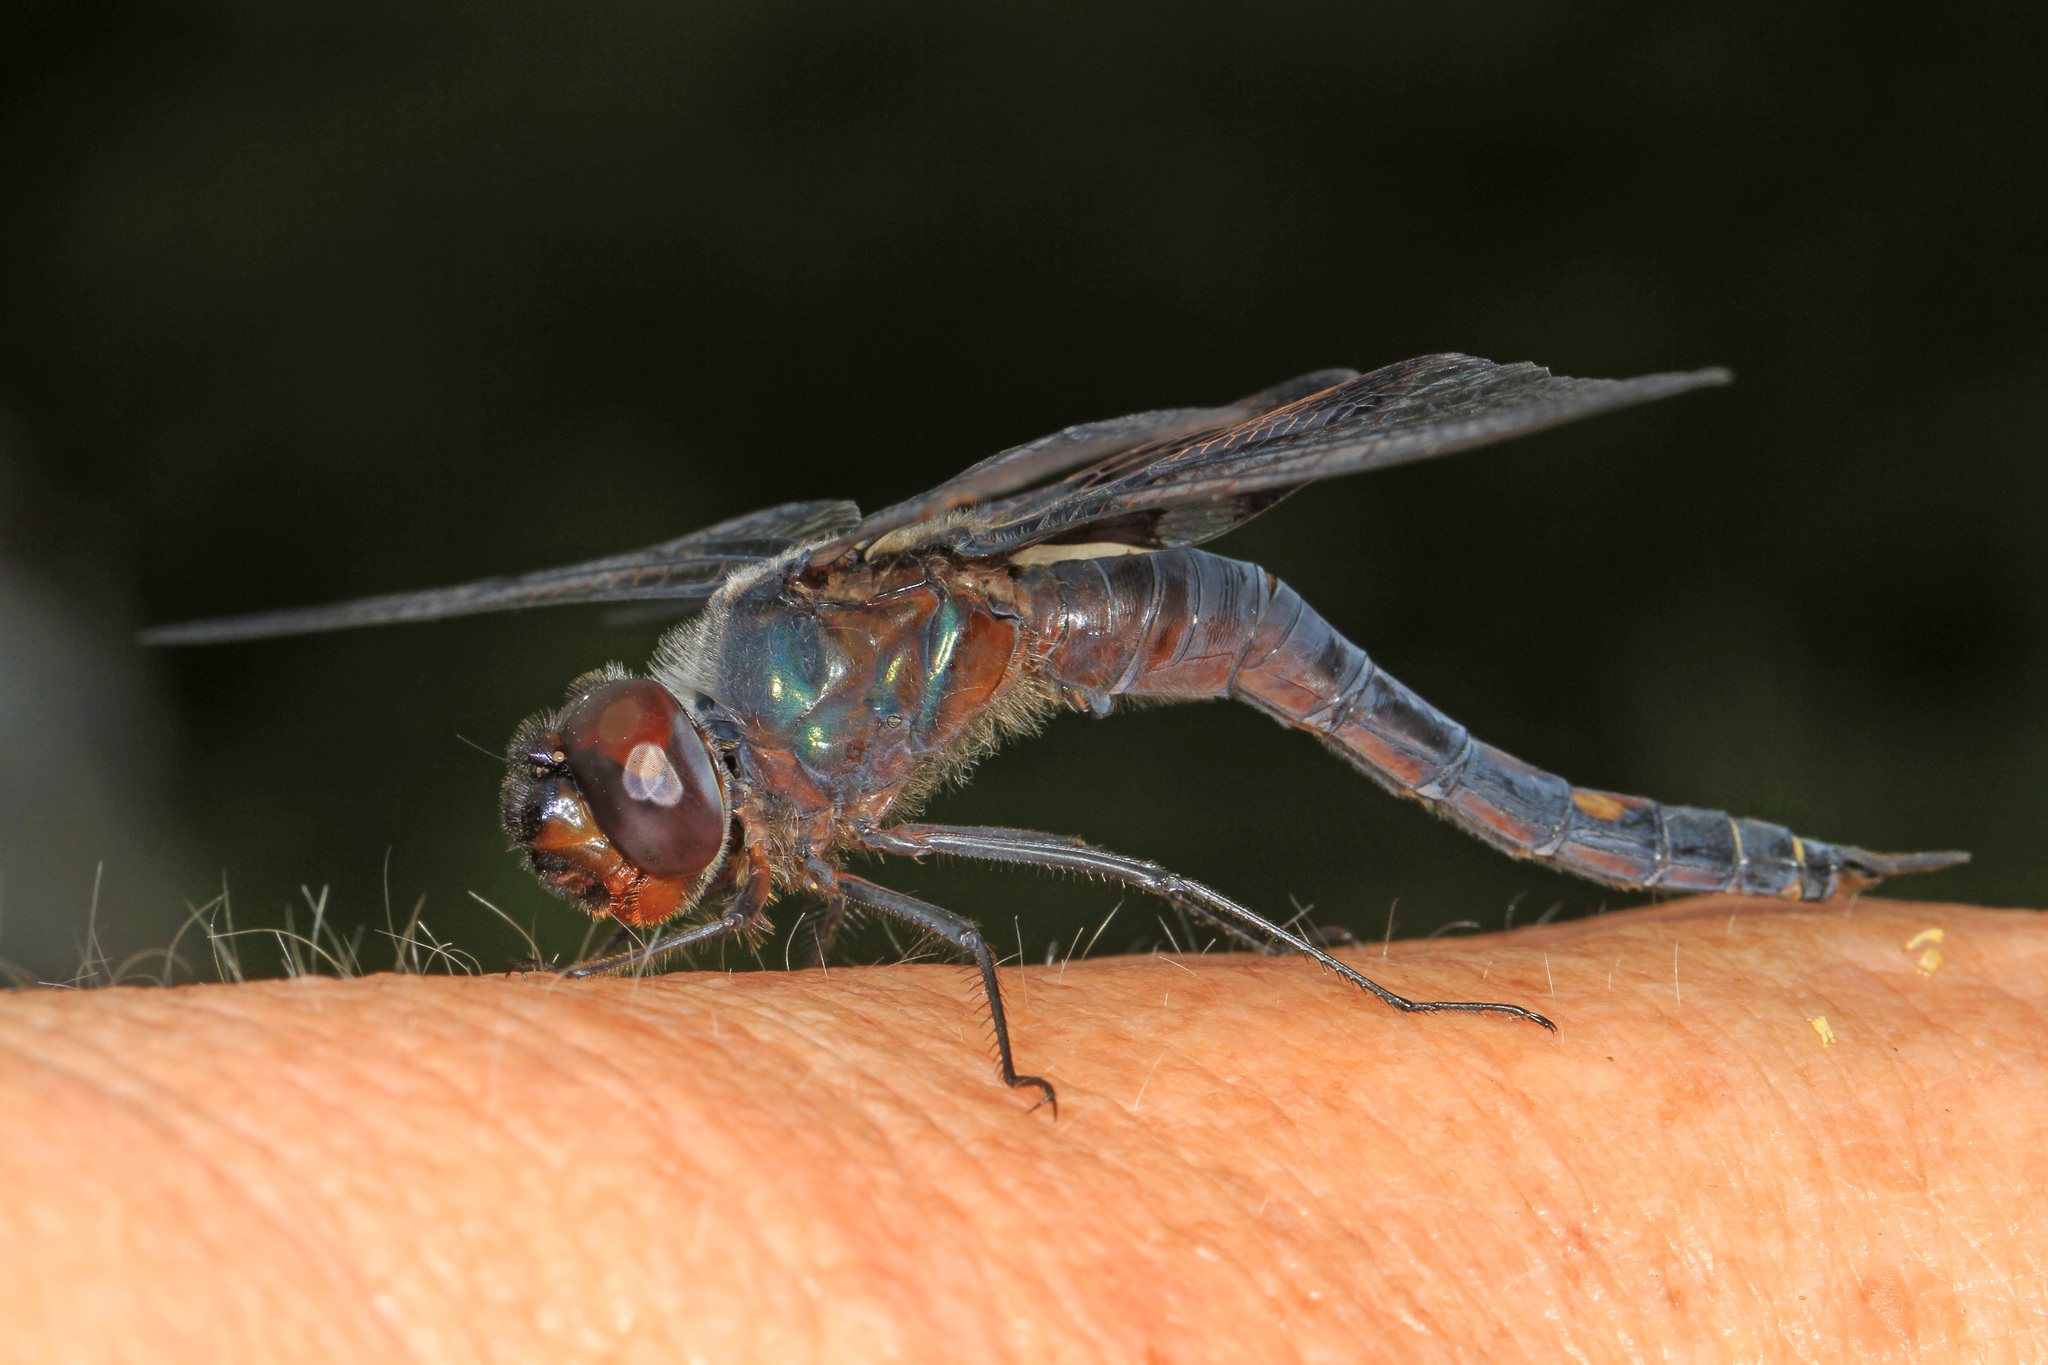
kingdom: Animalia
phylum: Arthropoda
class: Insecta
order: Odonata
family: Libellulidae
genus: Tramea
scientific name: Tramea lacerata
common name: Black saddlebags
